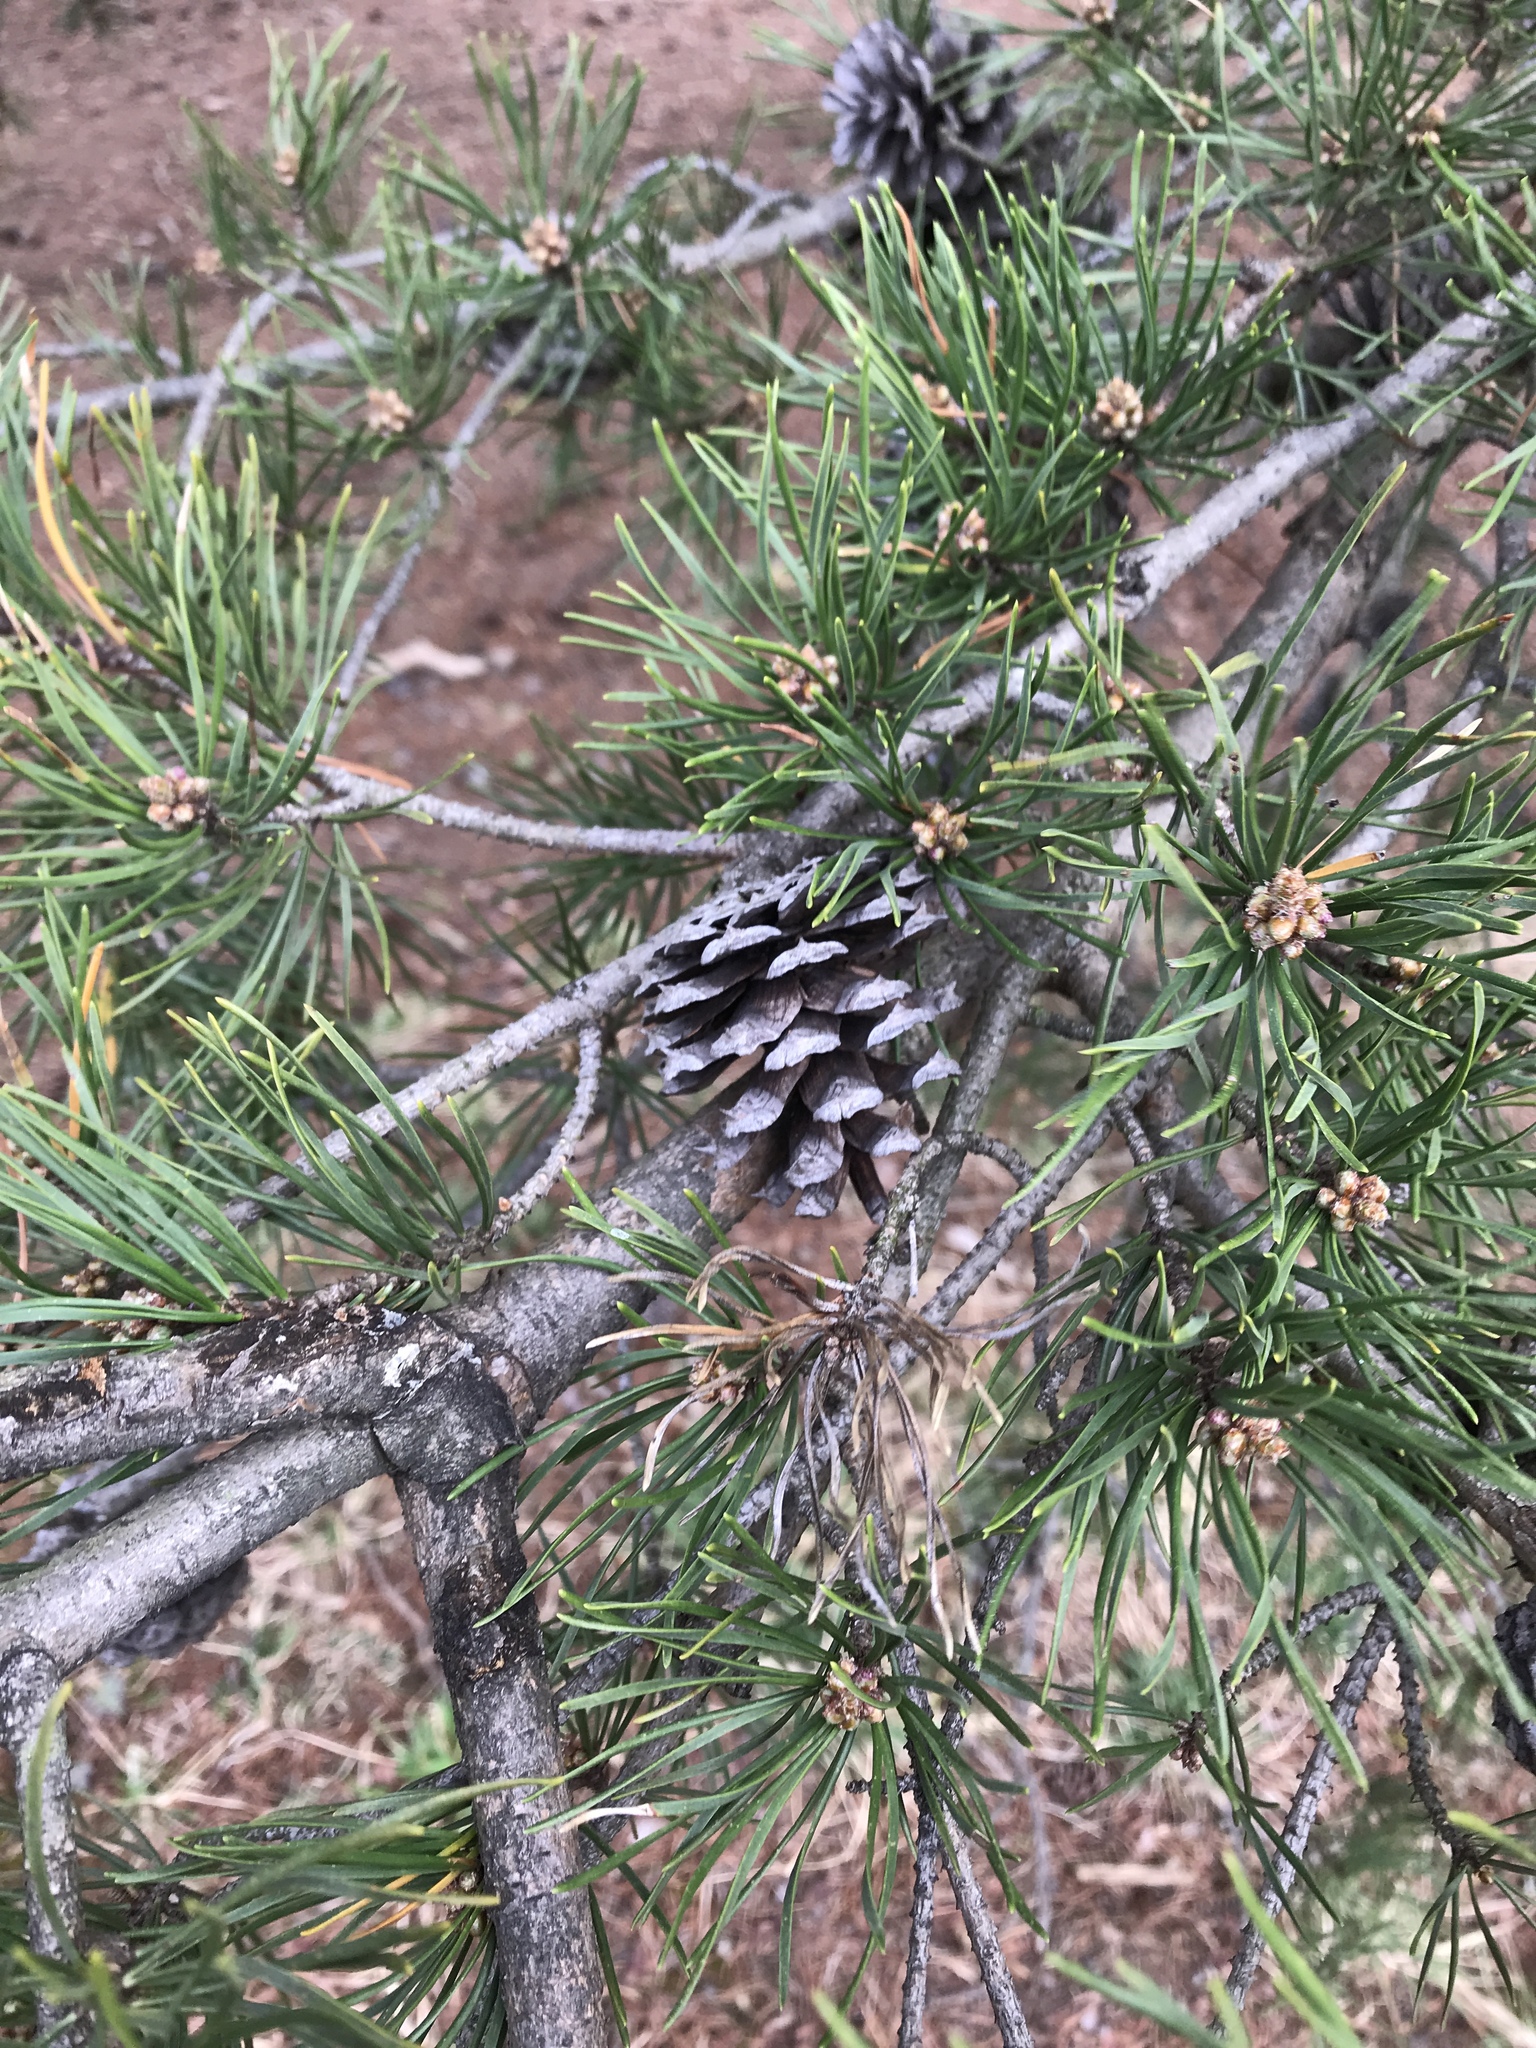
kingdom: Plantae
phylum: Tracheophyta
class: Pinopsida
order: Pinales
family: Pinaceae
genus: Pinus
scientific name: Pinus virginiana
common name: Scrub pine
